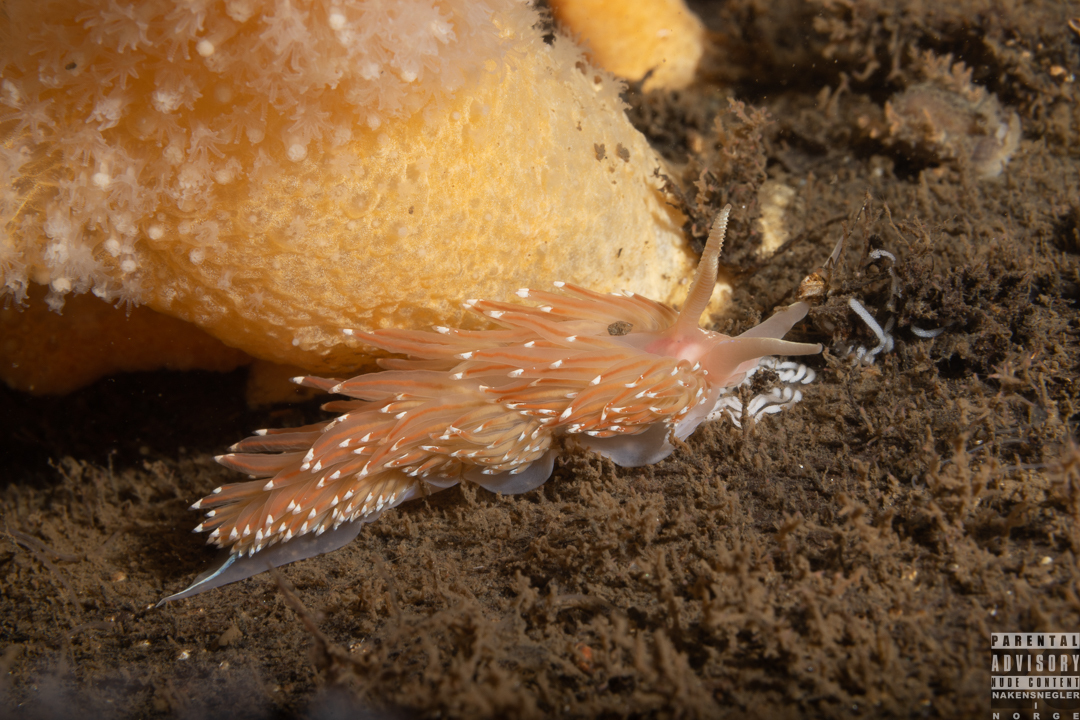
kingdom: Animalia
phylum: Mollusca
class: Gastropoda
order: Nudibranchia
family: Facelinidae
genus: Facelina
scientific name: Facelina bostoniensis
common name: Boston facelina
